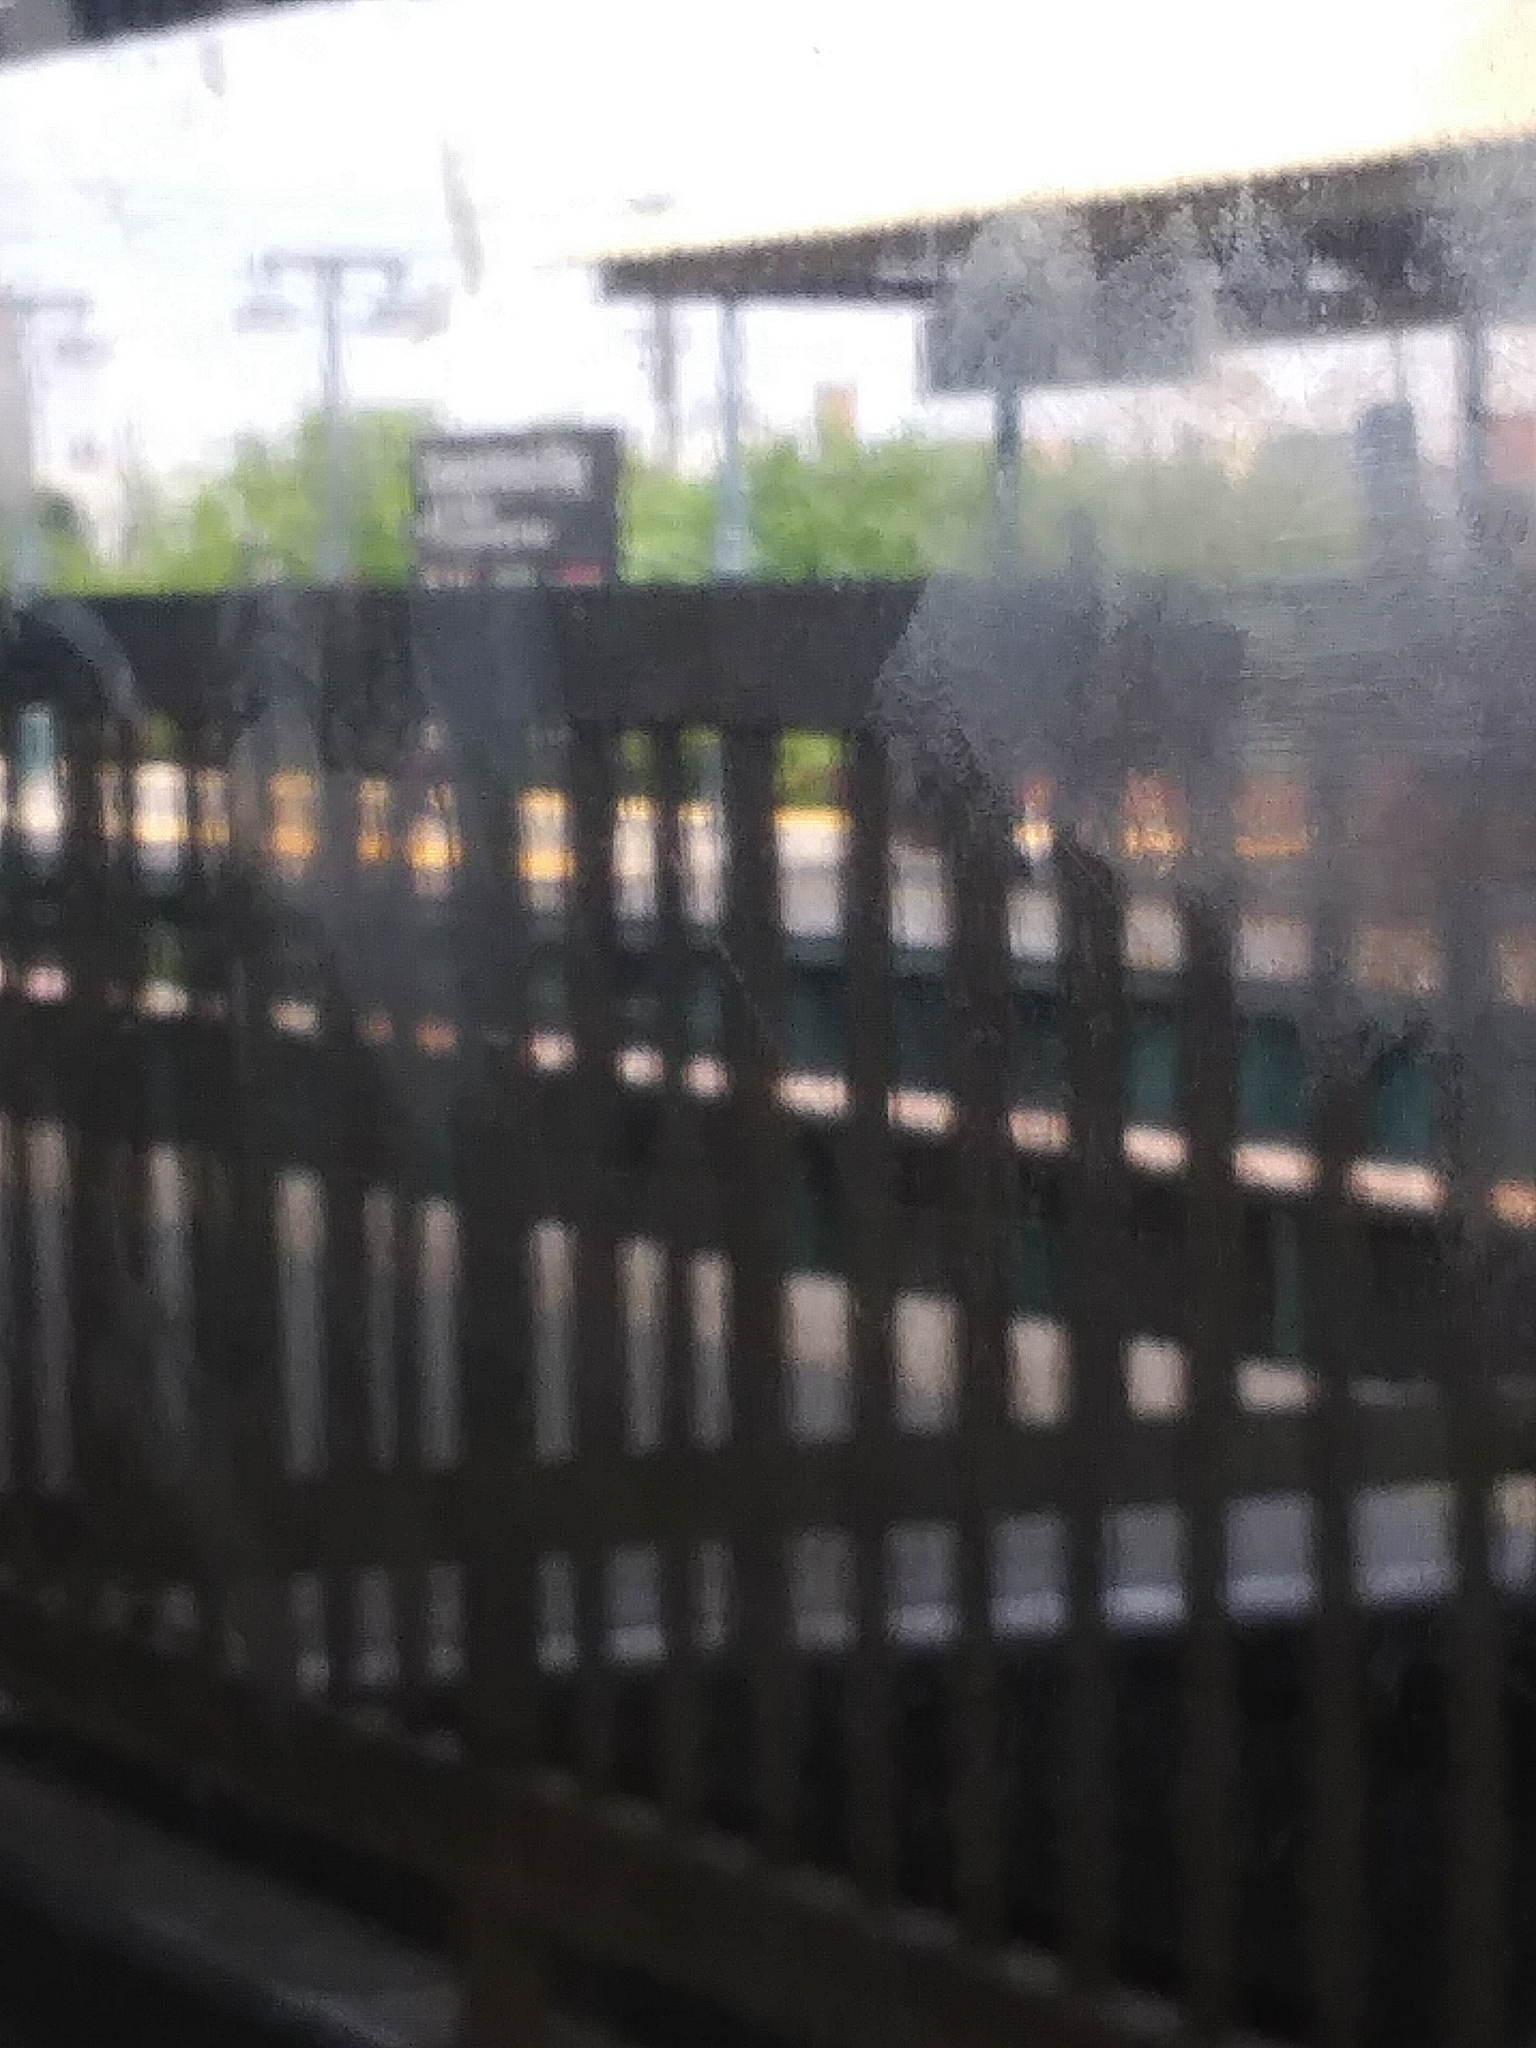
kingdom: Plantae
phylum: Tracheophyta
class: Magnoliopsida
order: Sapindales
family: Simaroubaceae
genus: Ailanthus
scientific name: Ailanthus altissima
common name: Tree-of-heaven
